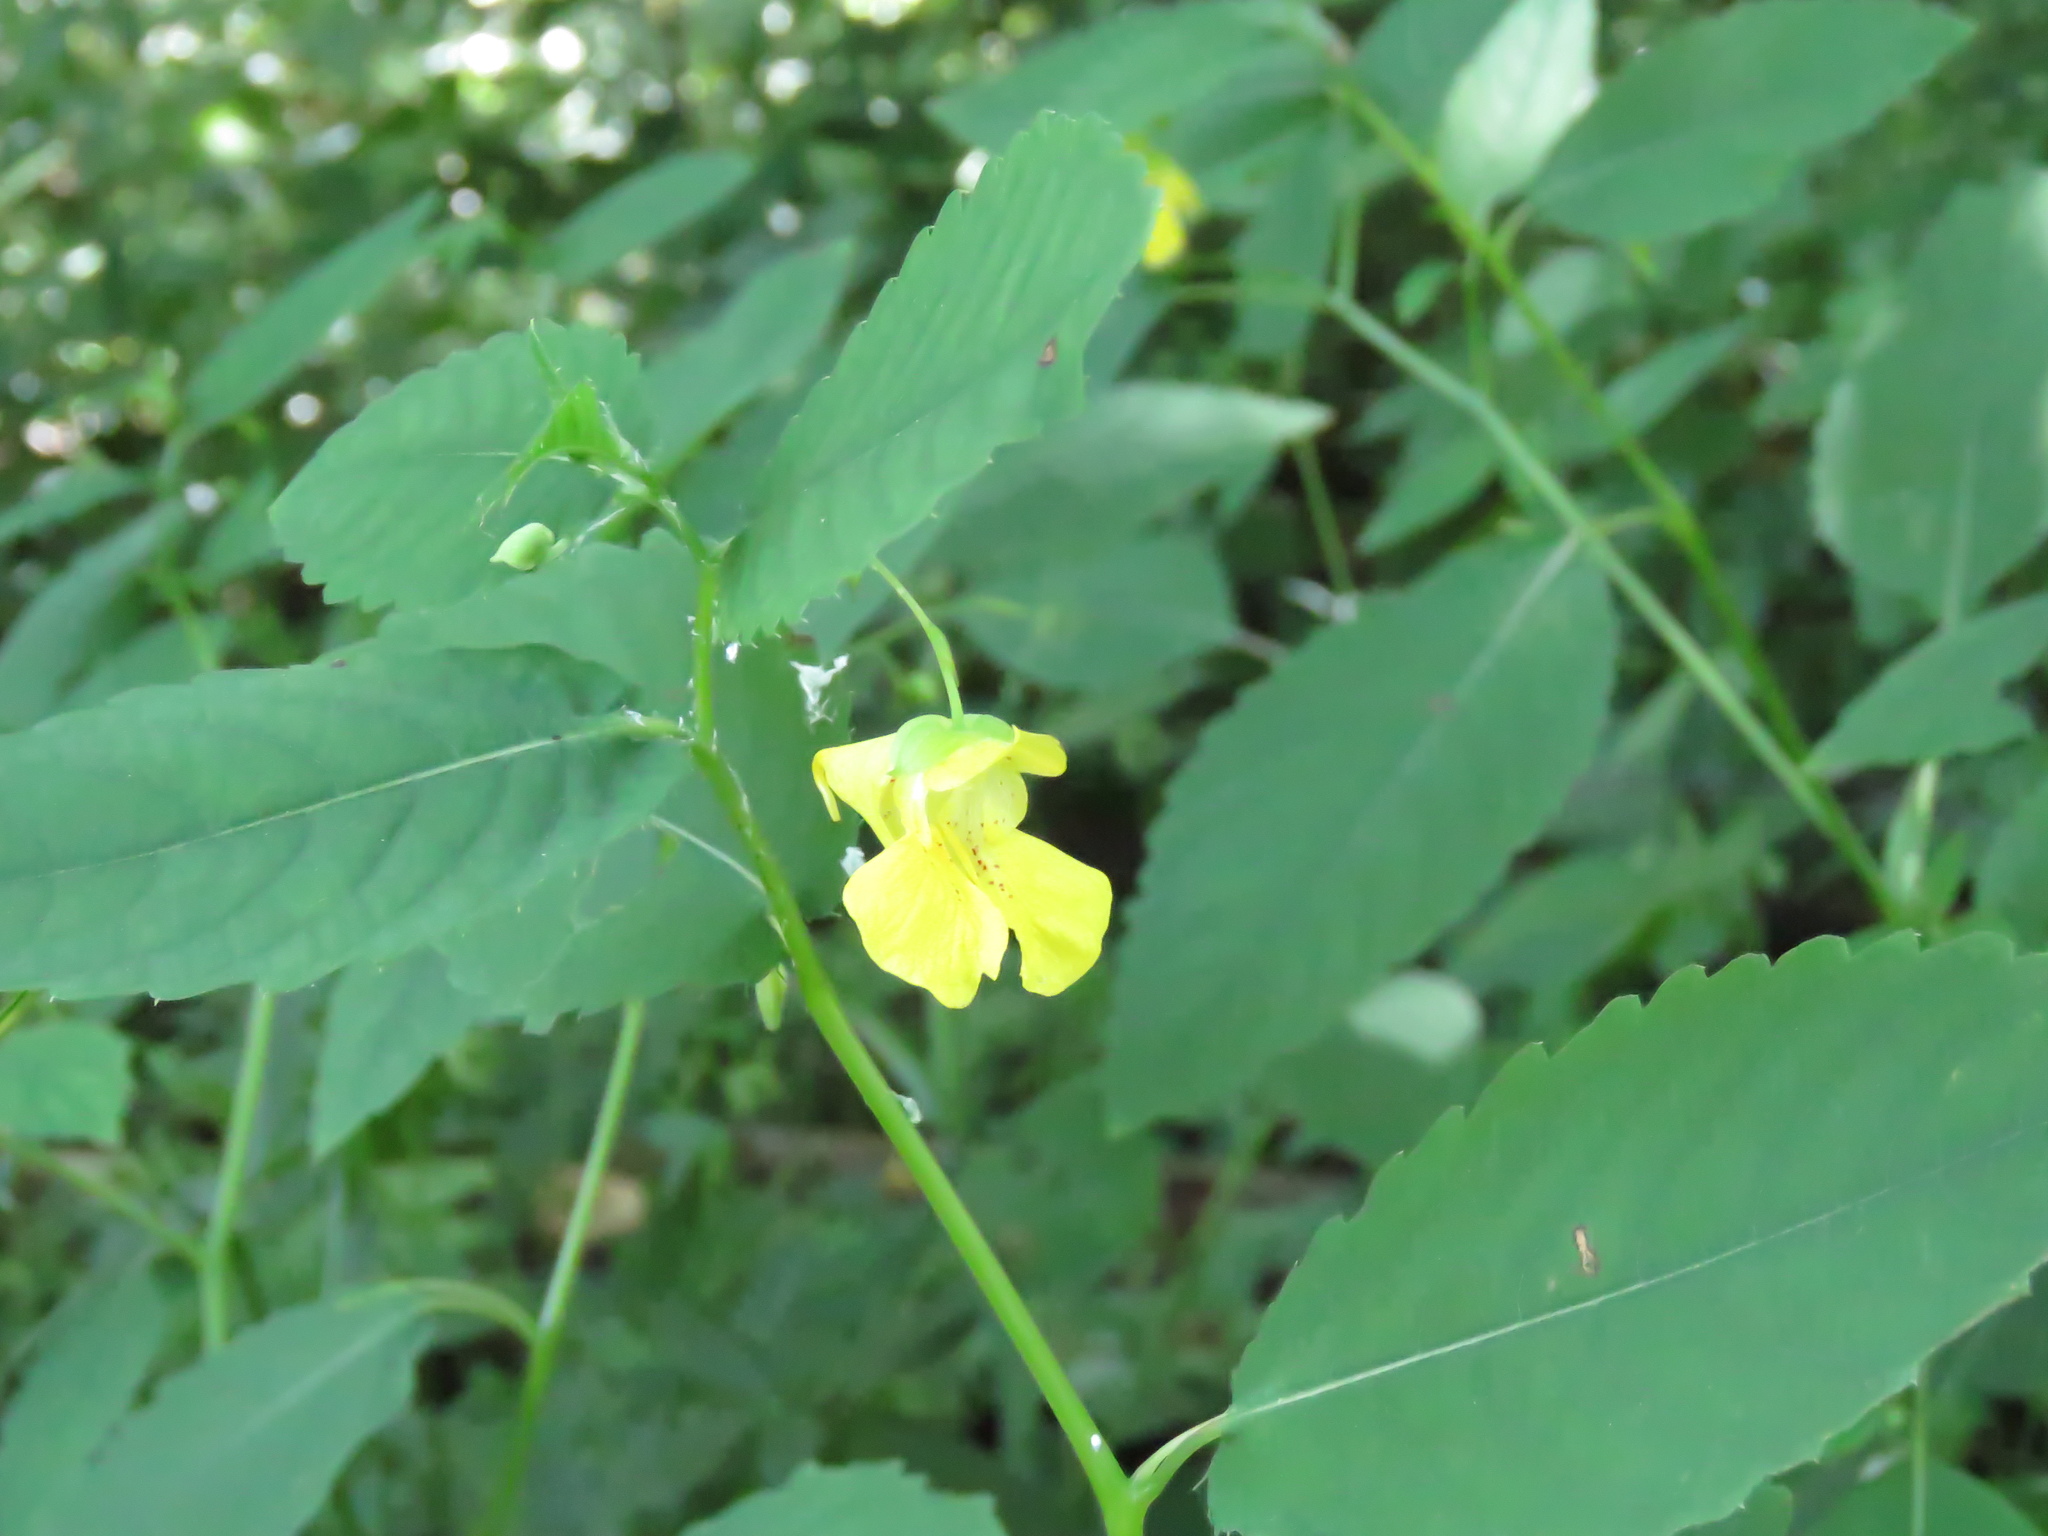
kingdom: Plantae
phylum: Tracheophyta
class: Magnoliopsida
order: Ericales
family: Balsaminaceae
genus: Impatiens
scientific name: Impatiens pallida
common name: Pale snapweed
